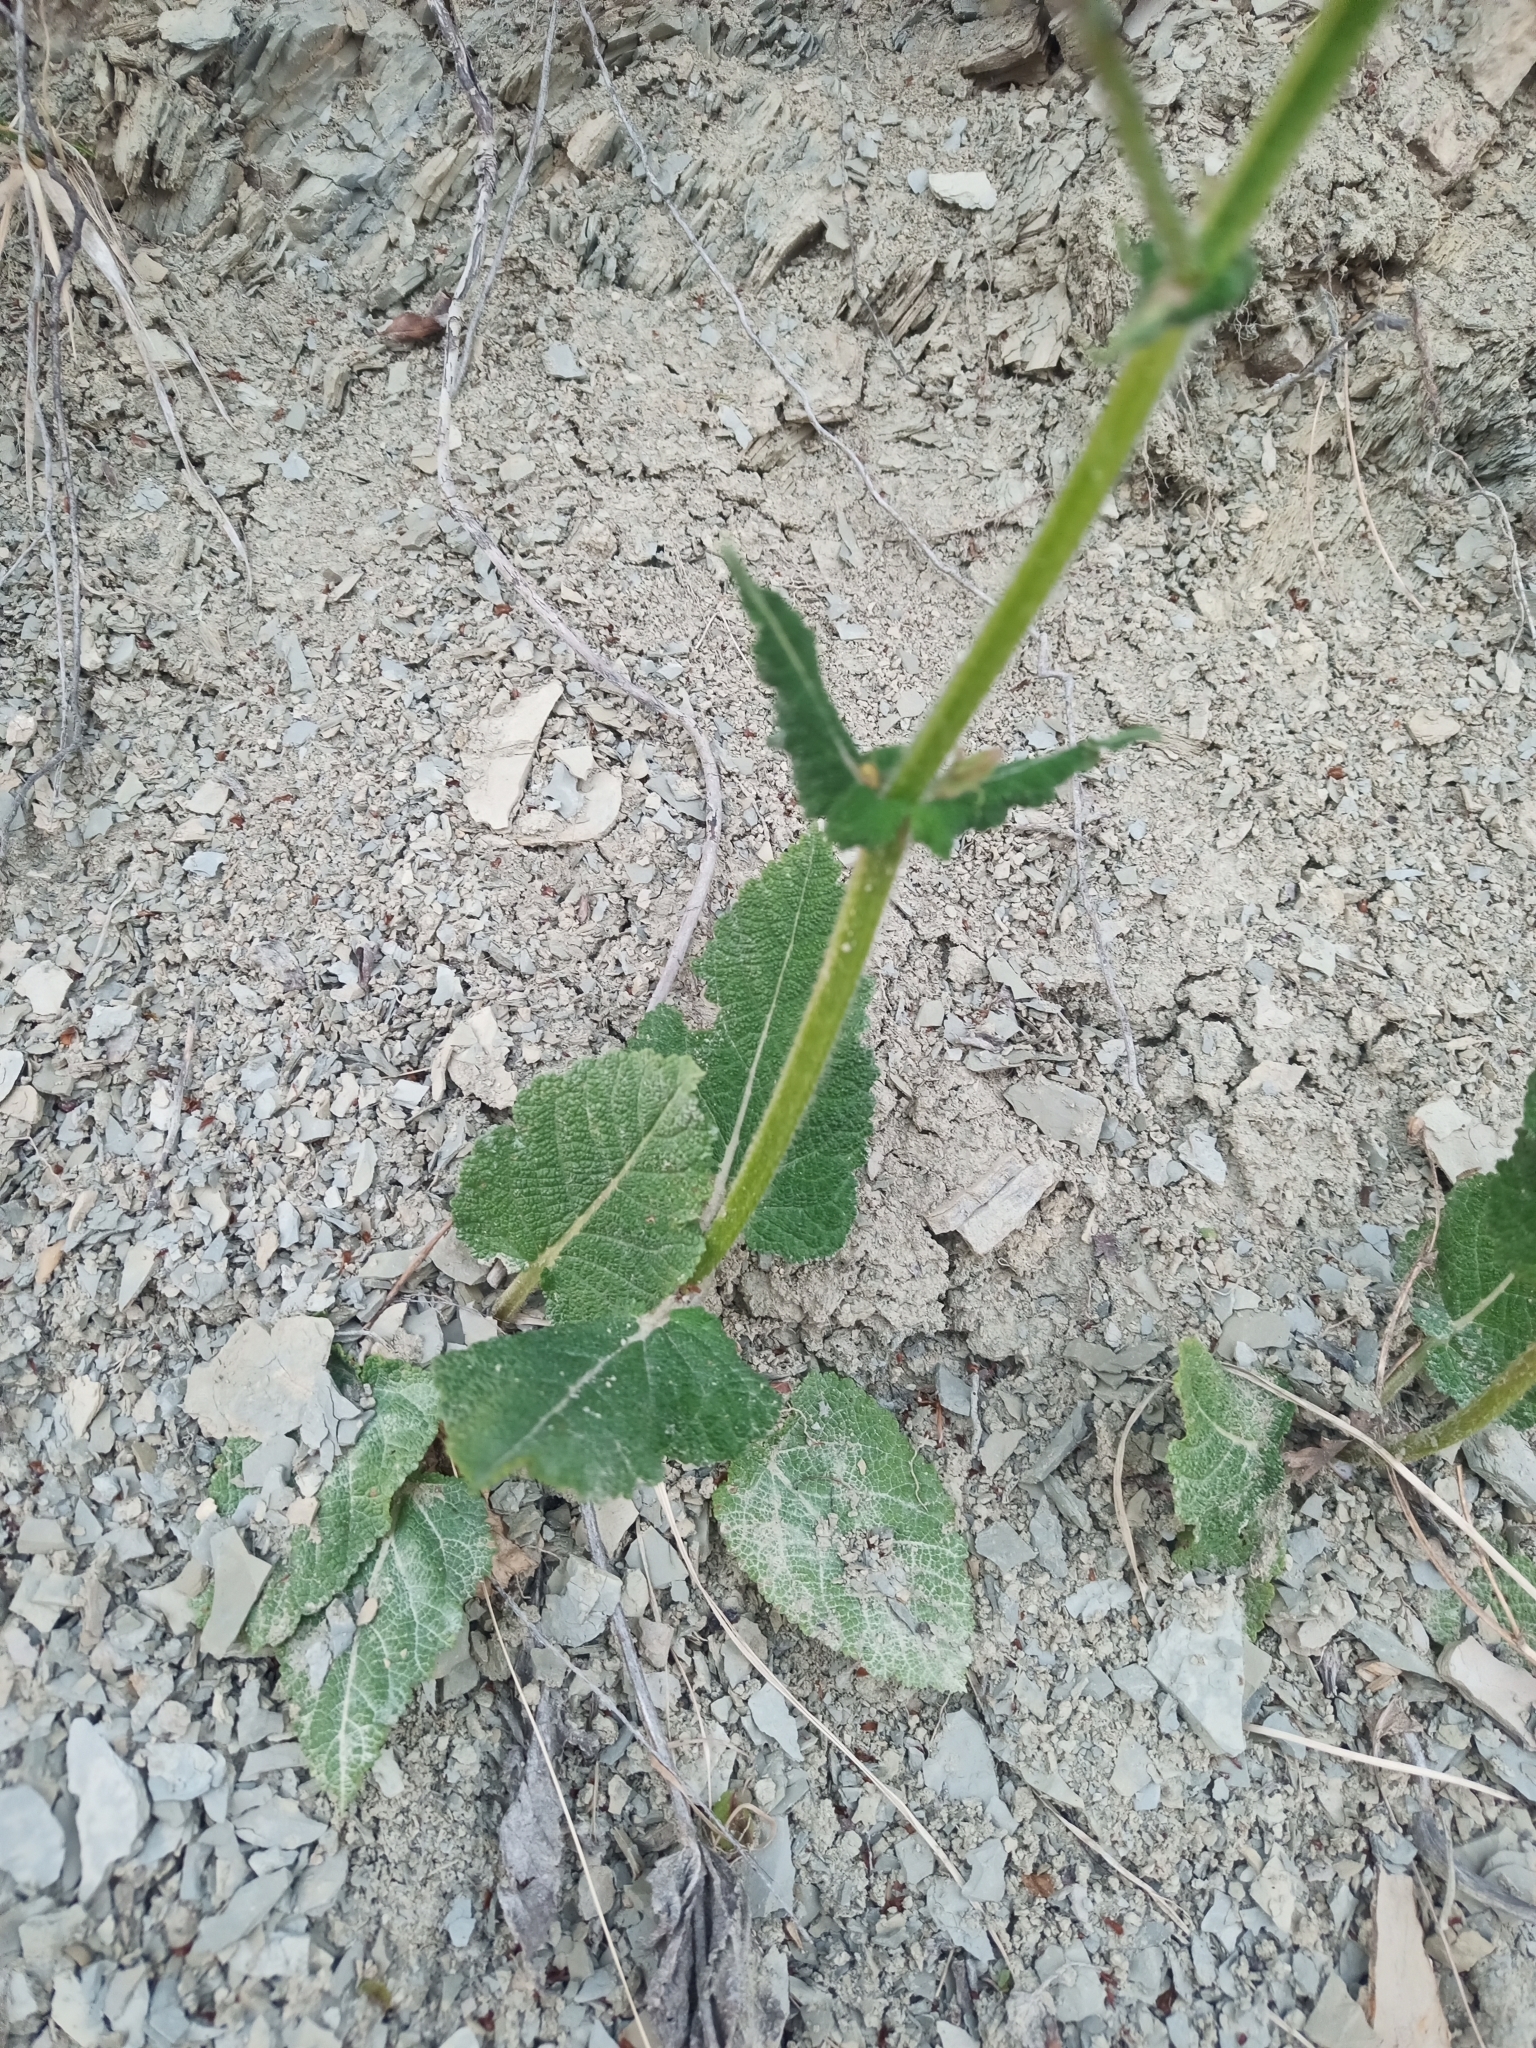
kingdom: Plantae
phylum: Tracheophyta
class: Magnoliopsida
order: Lamiales
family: Lamiaceae
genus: Salvia
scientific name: Salvia pratensis
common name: Meadow sage
